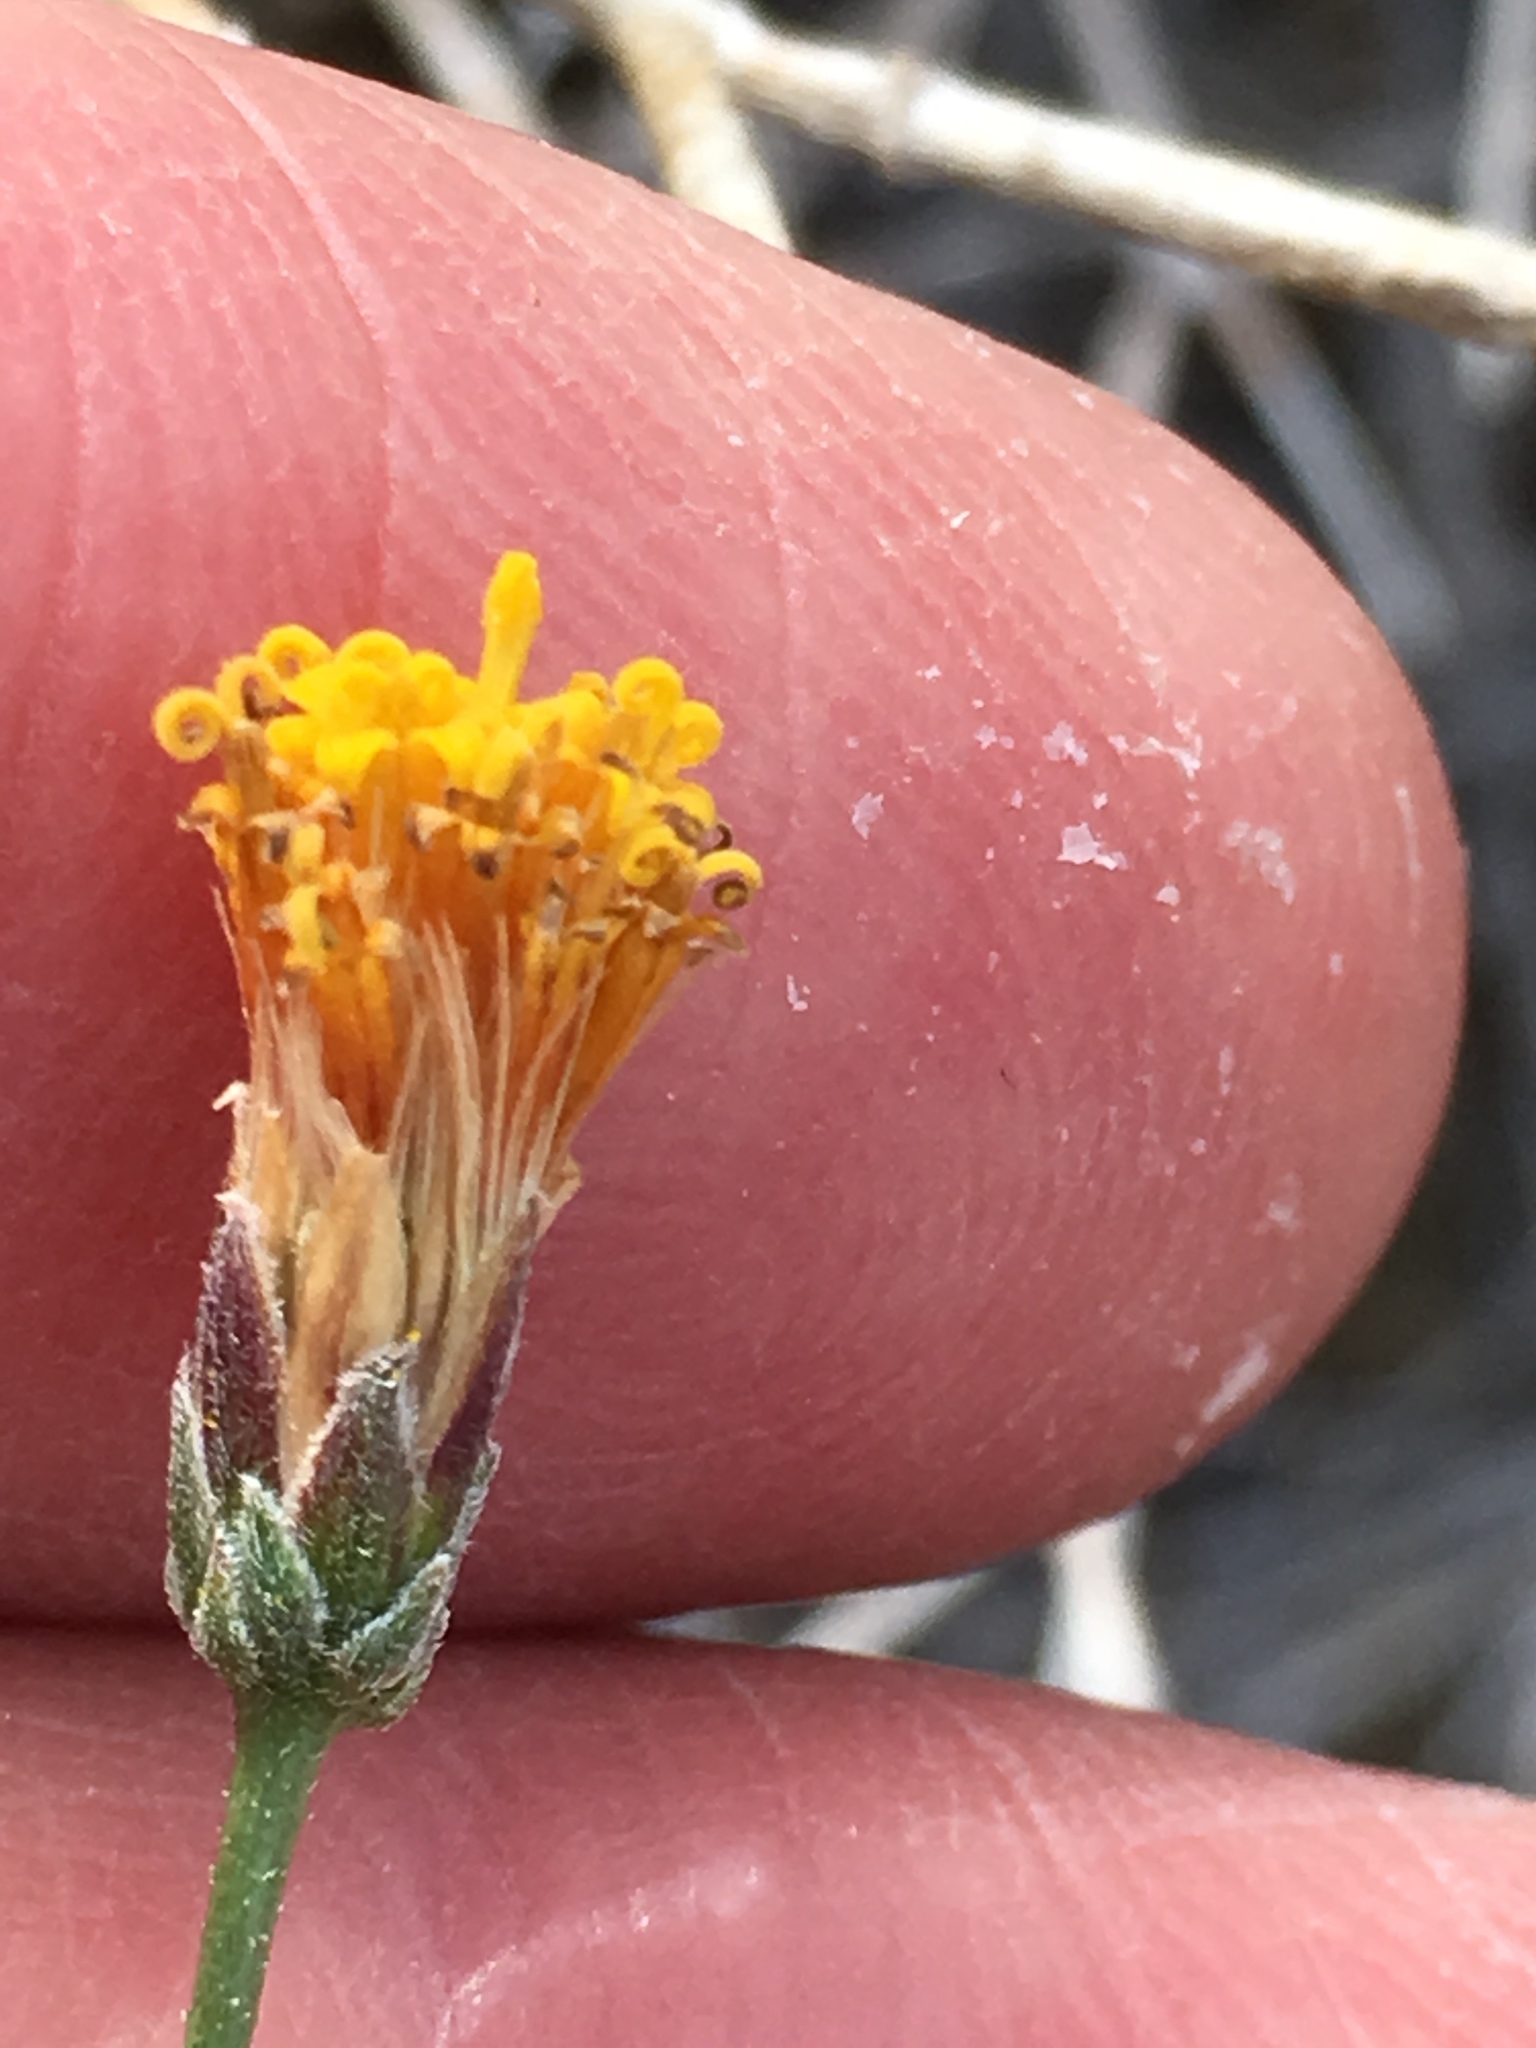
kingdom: Plantae
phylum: Tracheophyta
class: Magnoliopsida
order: Asterales
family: Asteraceae
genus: Bebbia
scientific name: Bebbia juncea
